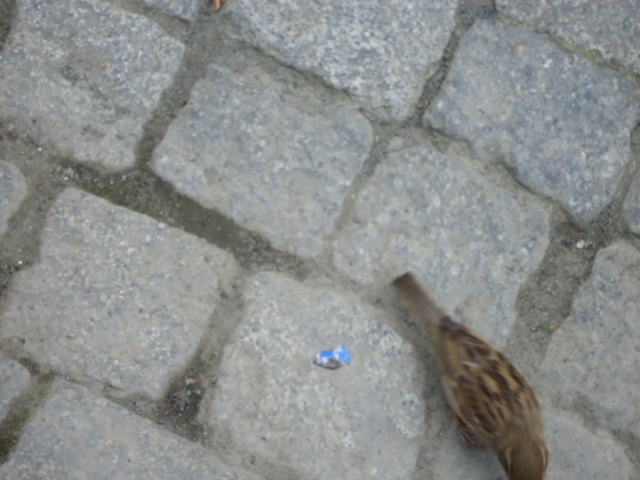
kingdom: Animalia
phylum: Chordata
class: Aves
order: Passeriformes
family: Passeridae
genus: Passer
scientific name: Passer domesticus
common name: House sparrow
